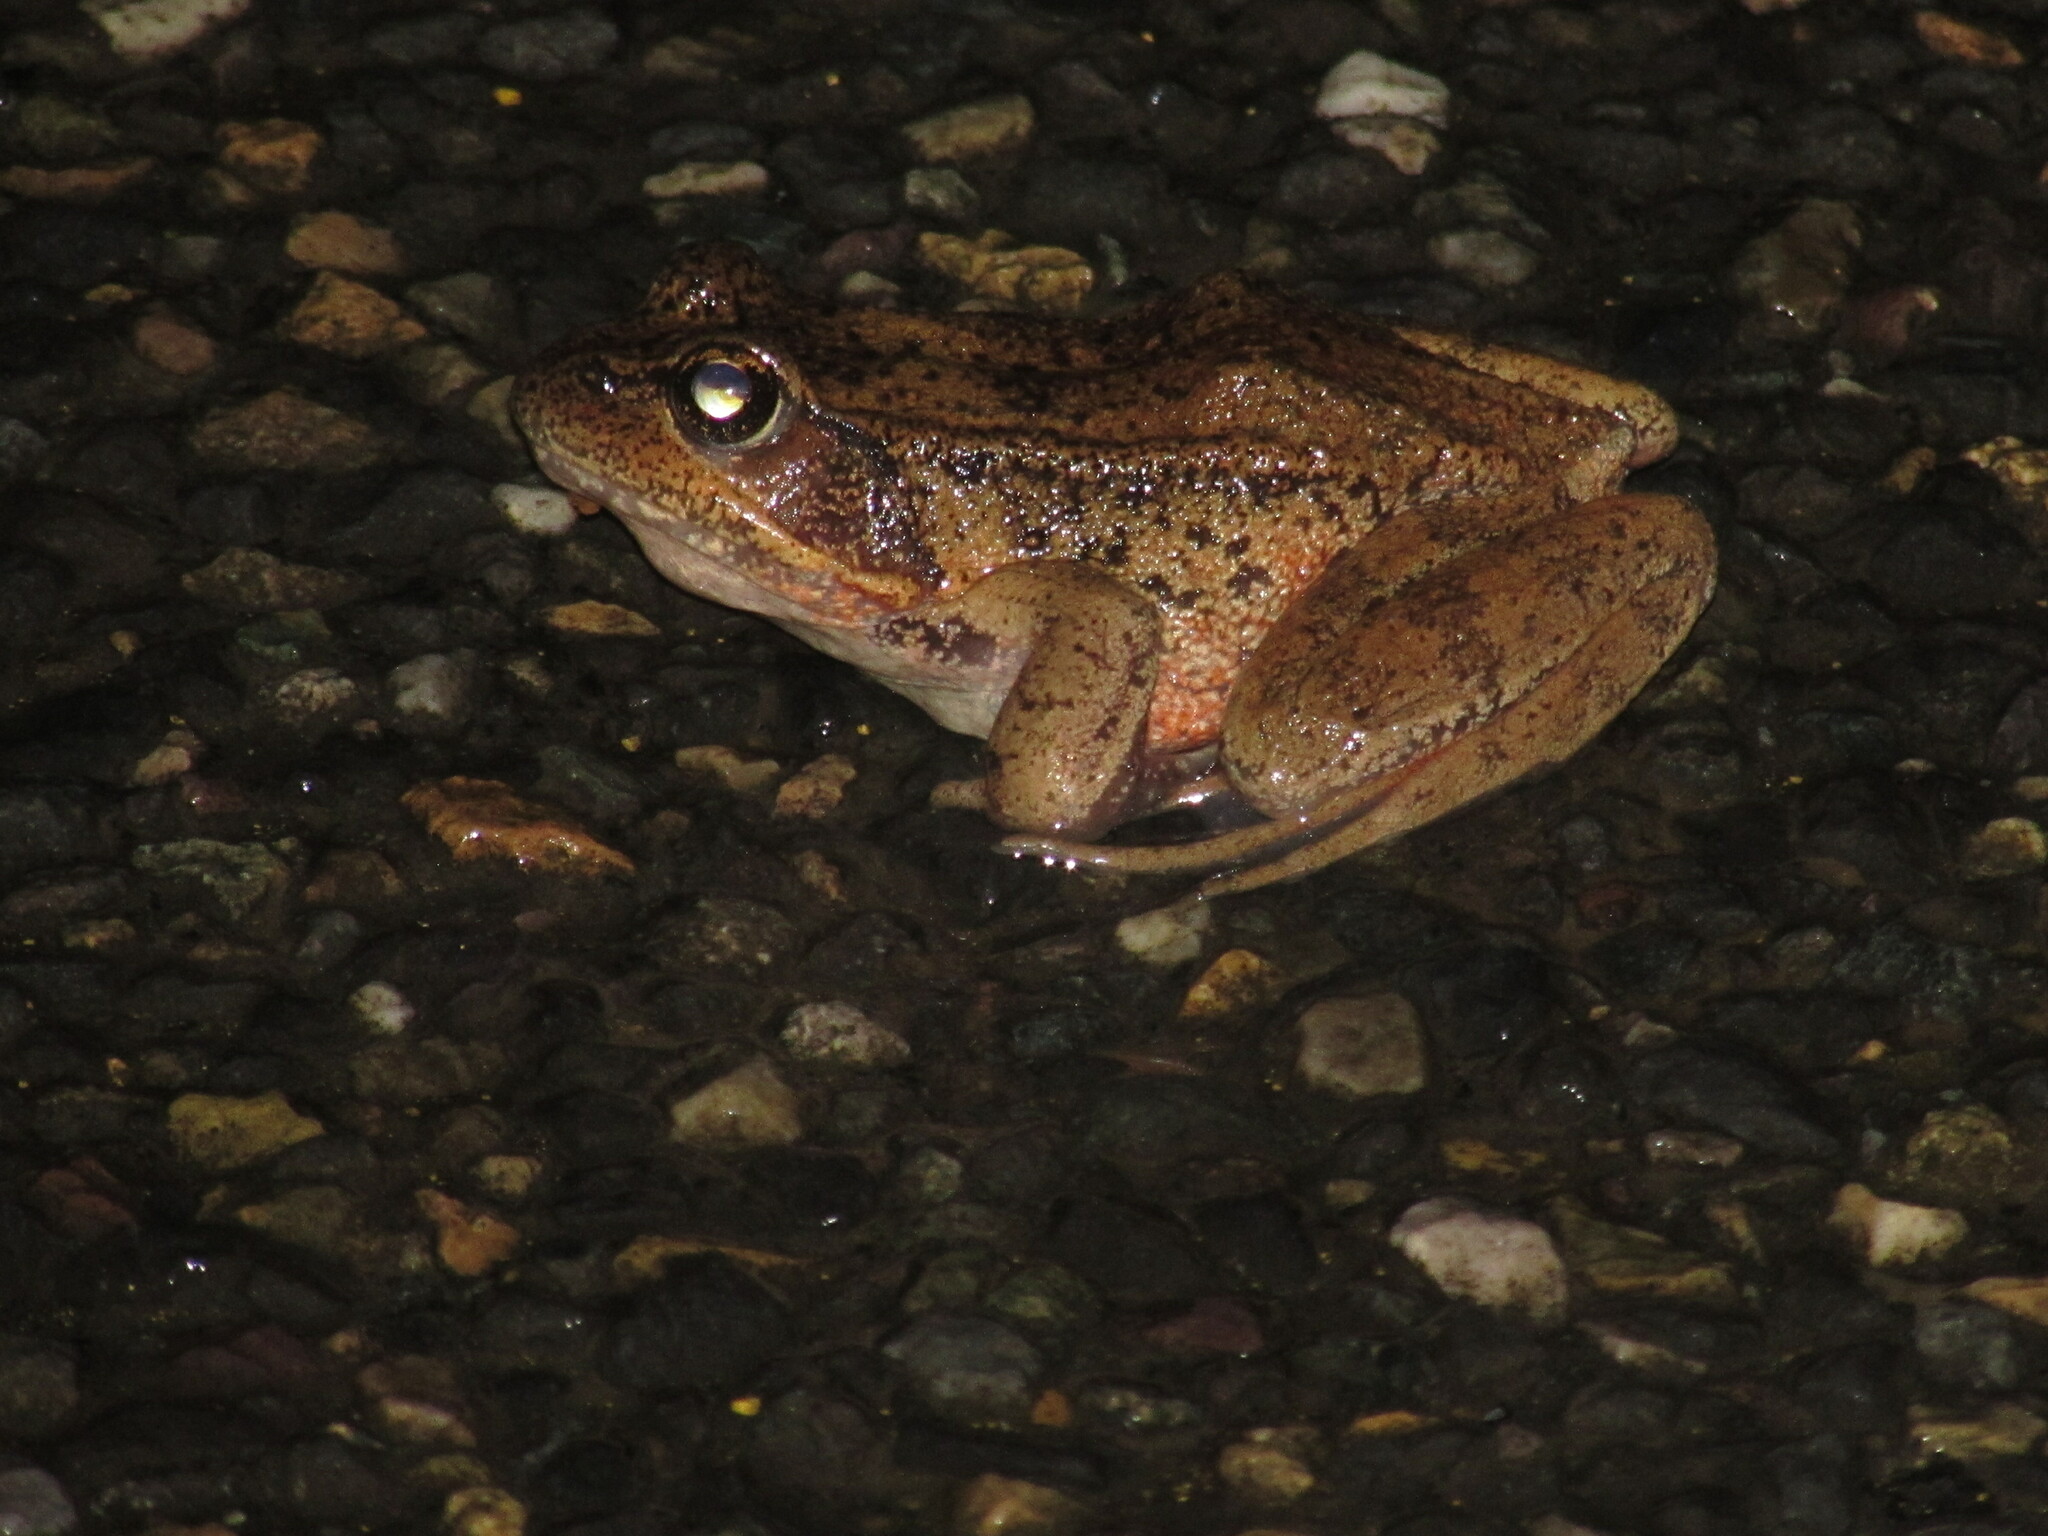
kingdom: Animalia
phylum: Chordata
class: Amphibia
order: Anura
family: Ranidae
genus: Rana
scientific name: Rana aurora
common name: Red-legged frog
